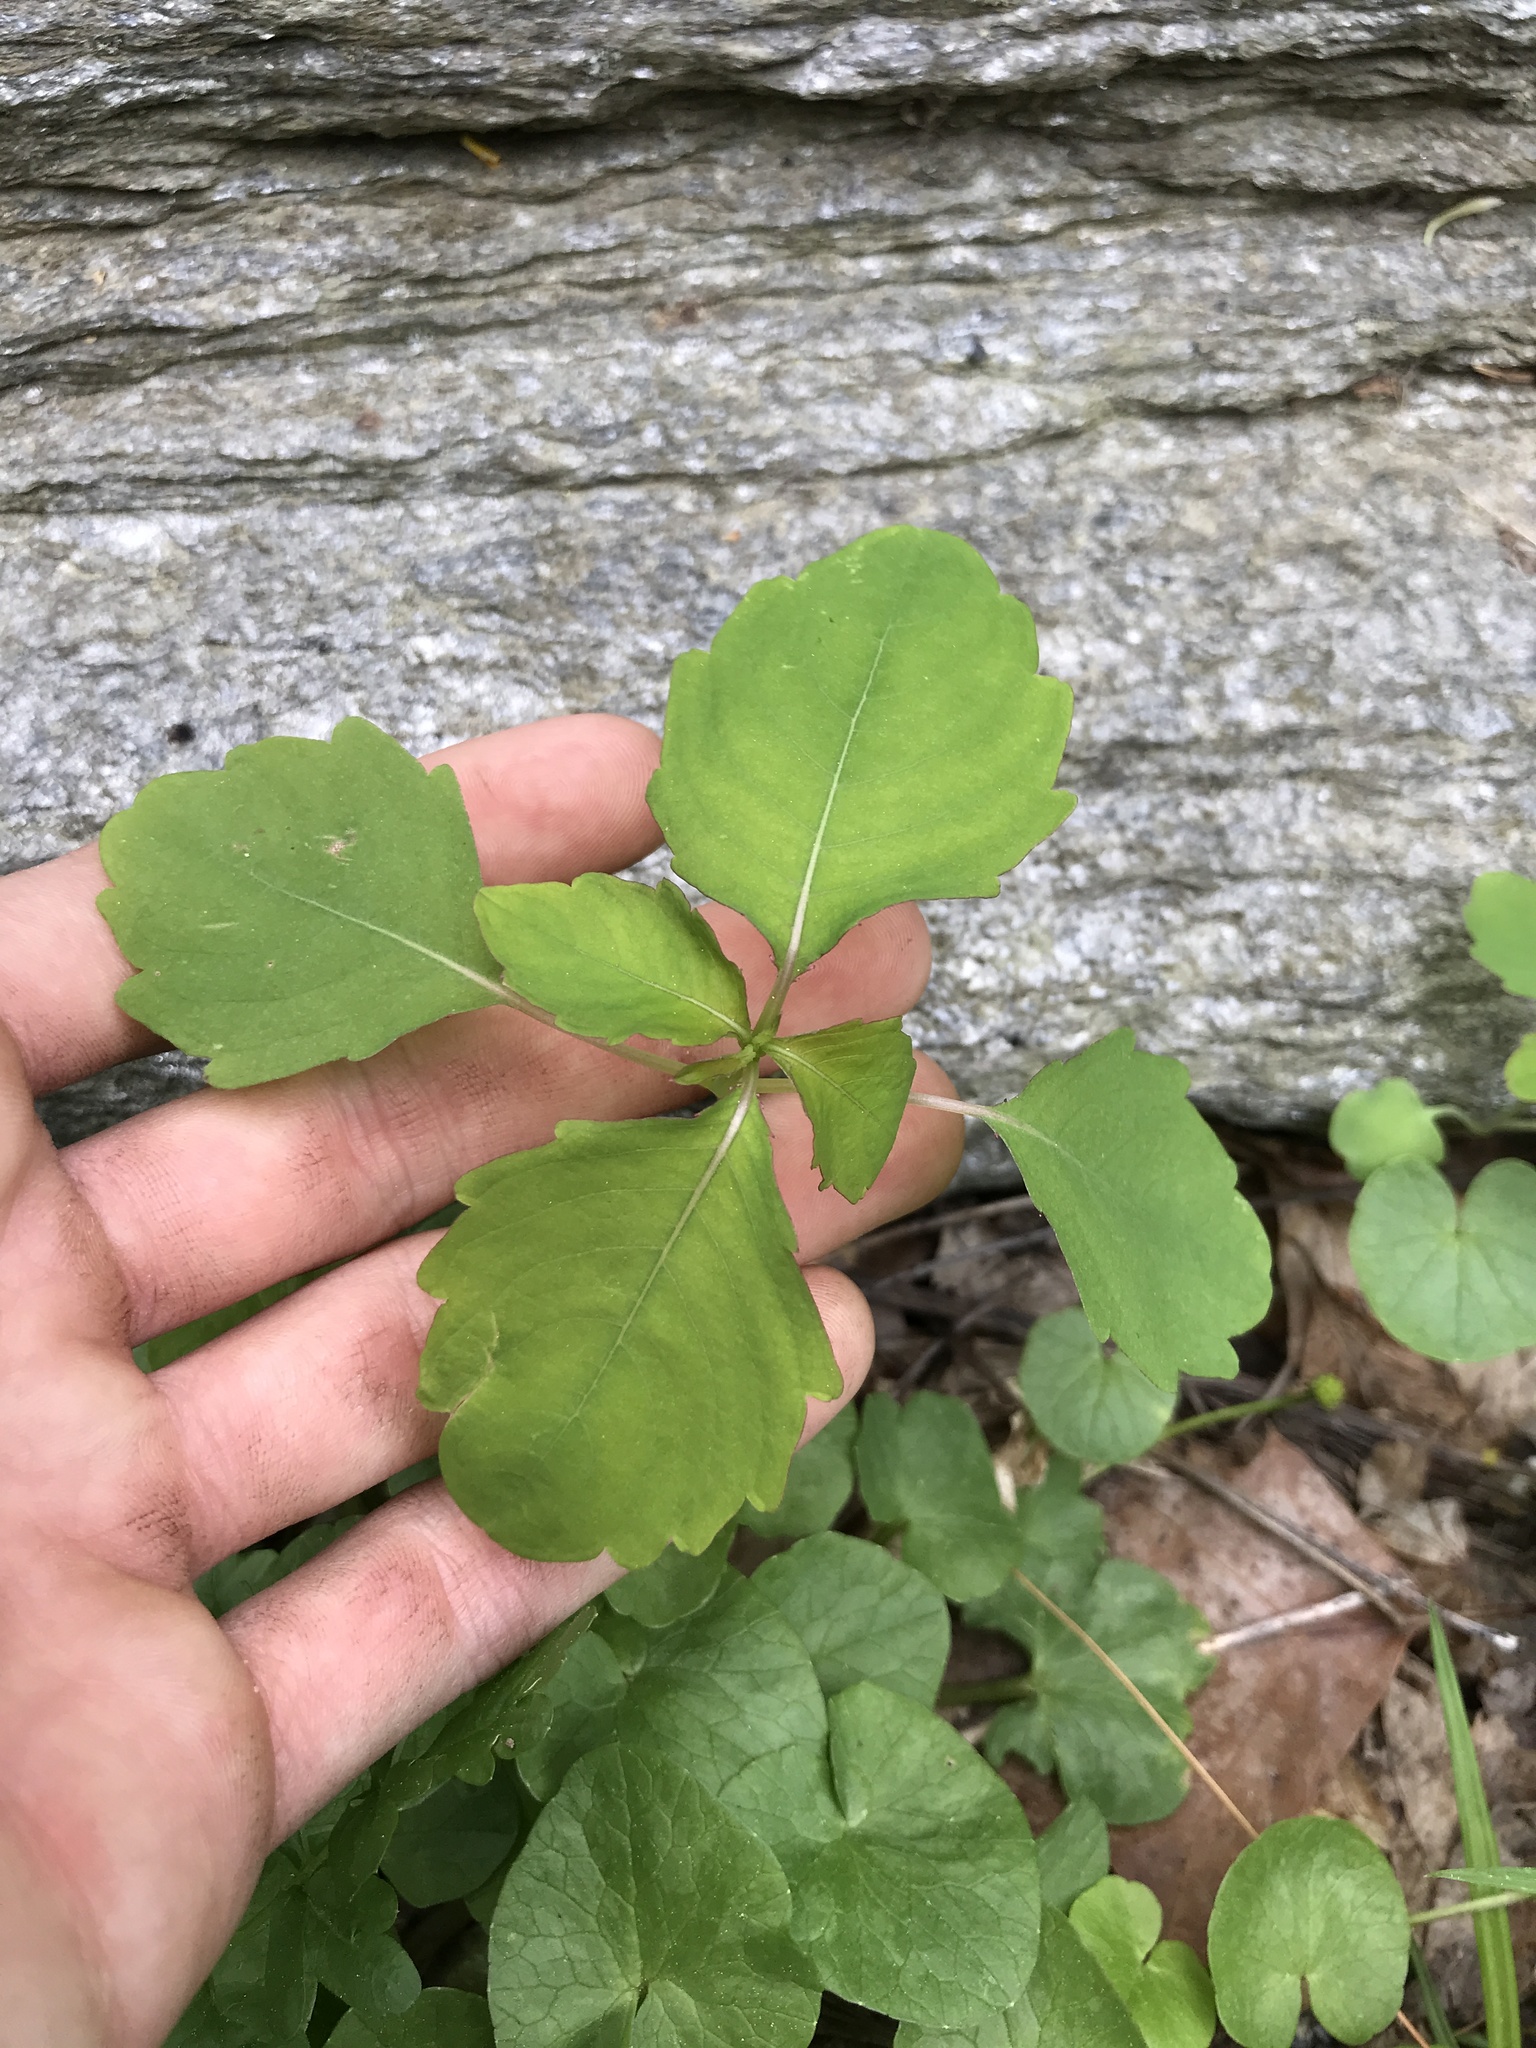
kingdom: Plantae
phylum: Tracheophyta
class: Magnoliopsida
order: Ericales
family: Balsaminaceae
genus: Impatiens
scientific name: Impatiens
